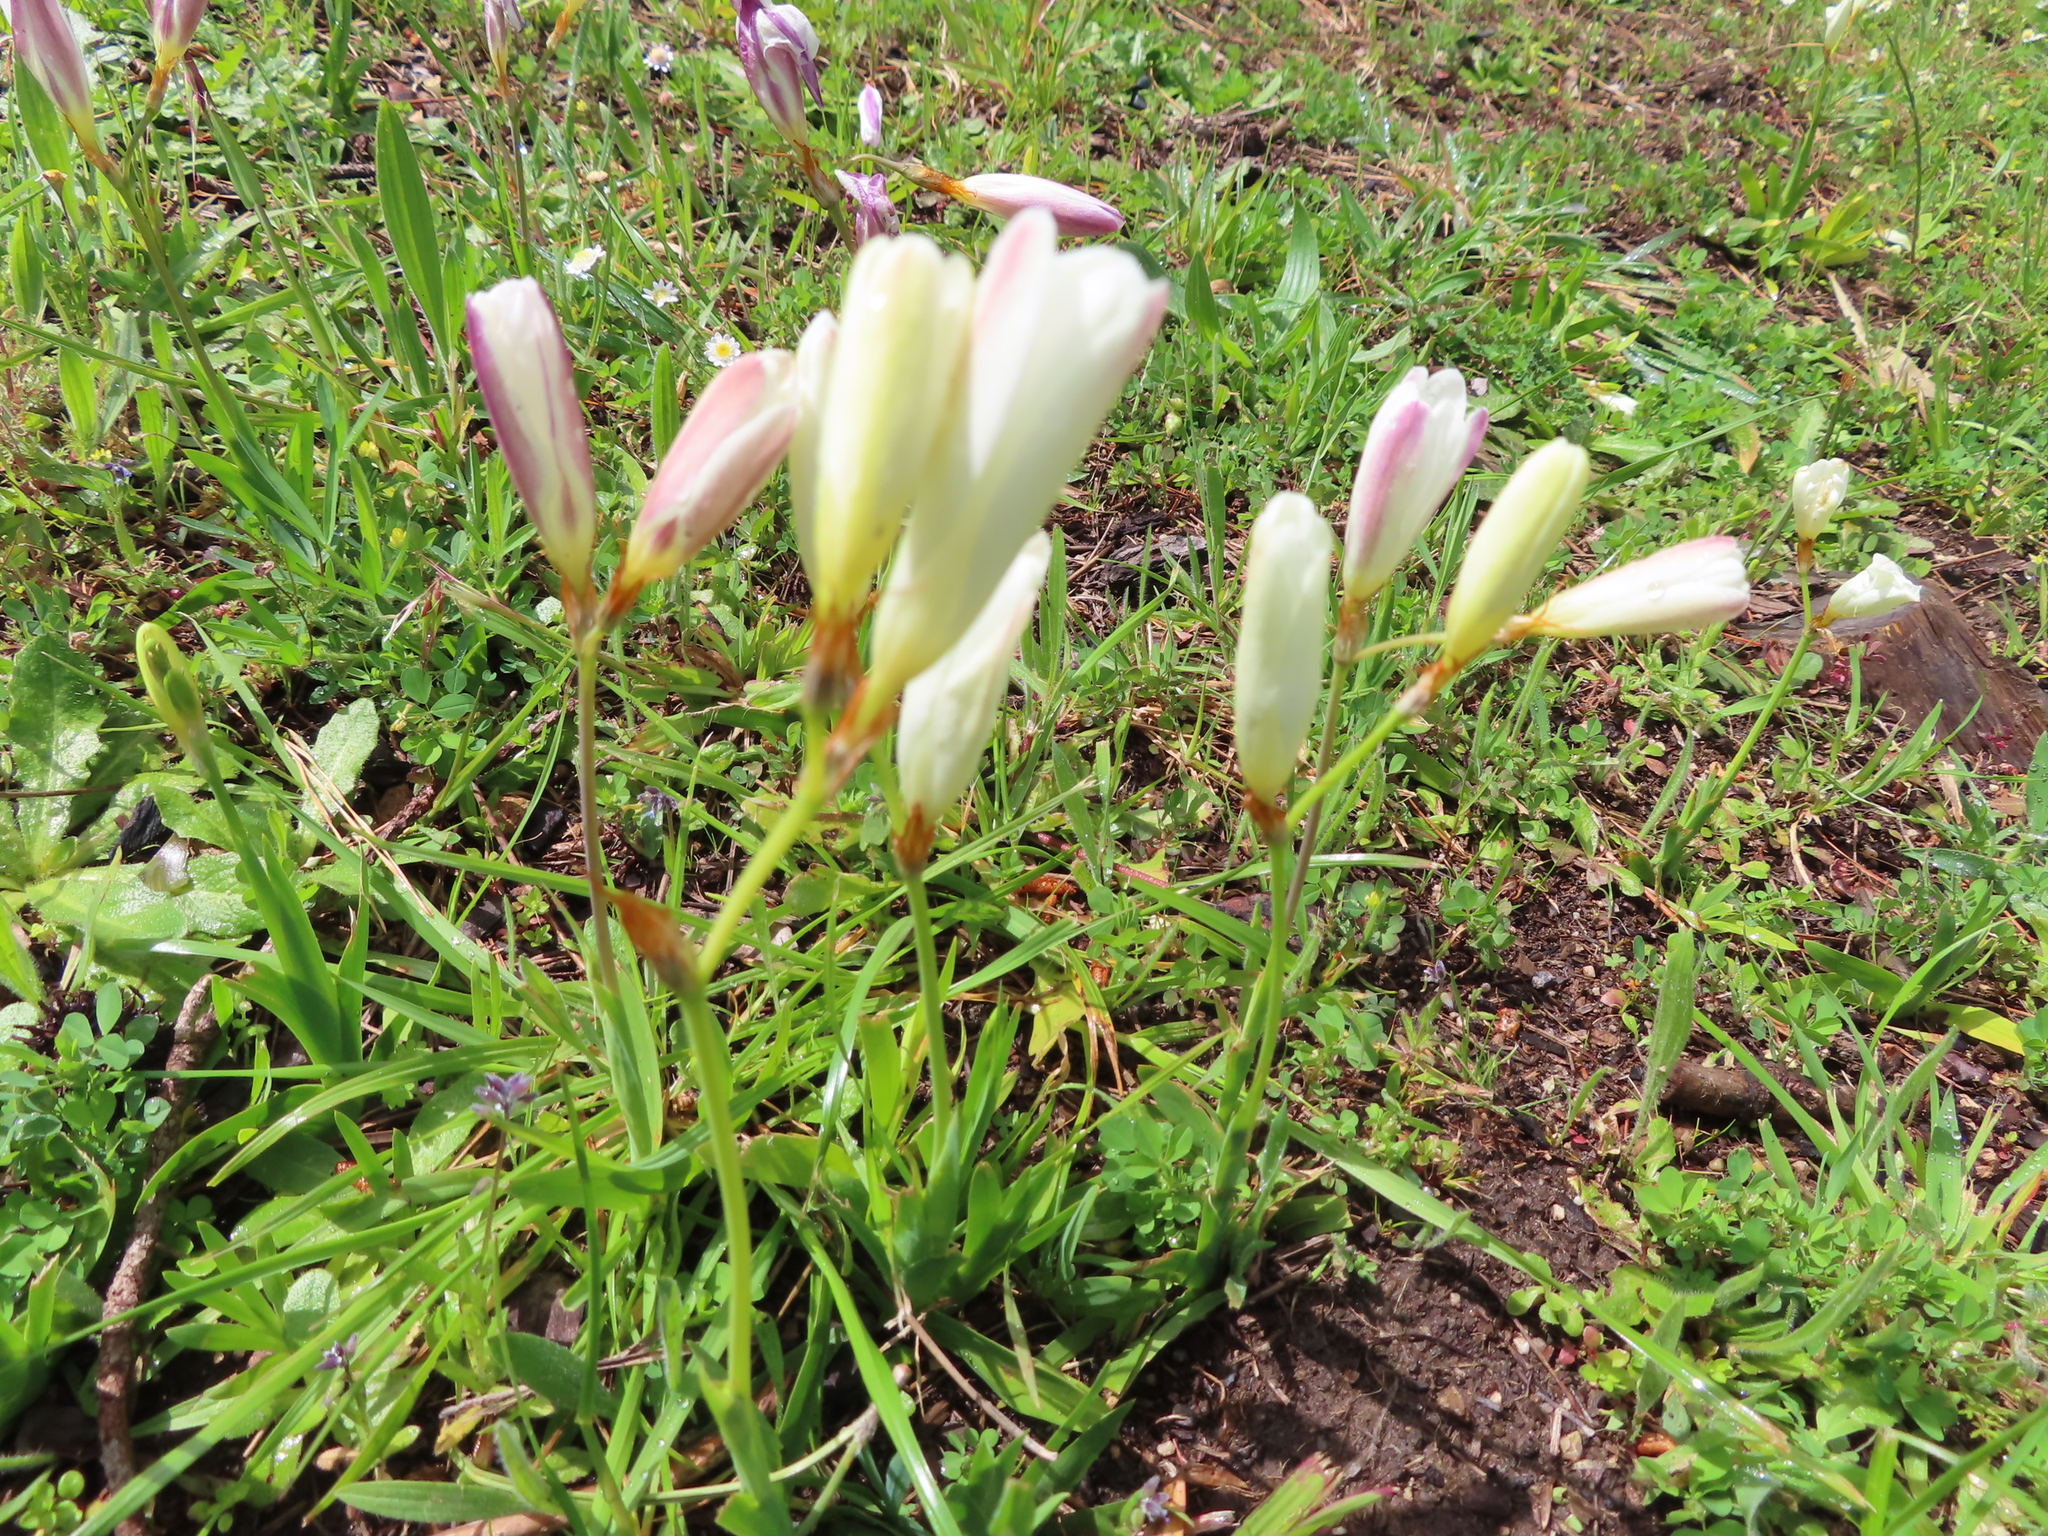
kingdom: Plantae
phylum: Tracheophyta
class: Liliopsida
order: Asparagales
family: Iridaceae
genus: Sparaxis
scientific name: Sparaxis bulbifera
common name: Harlequin-flower
